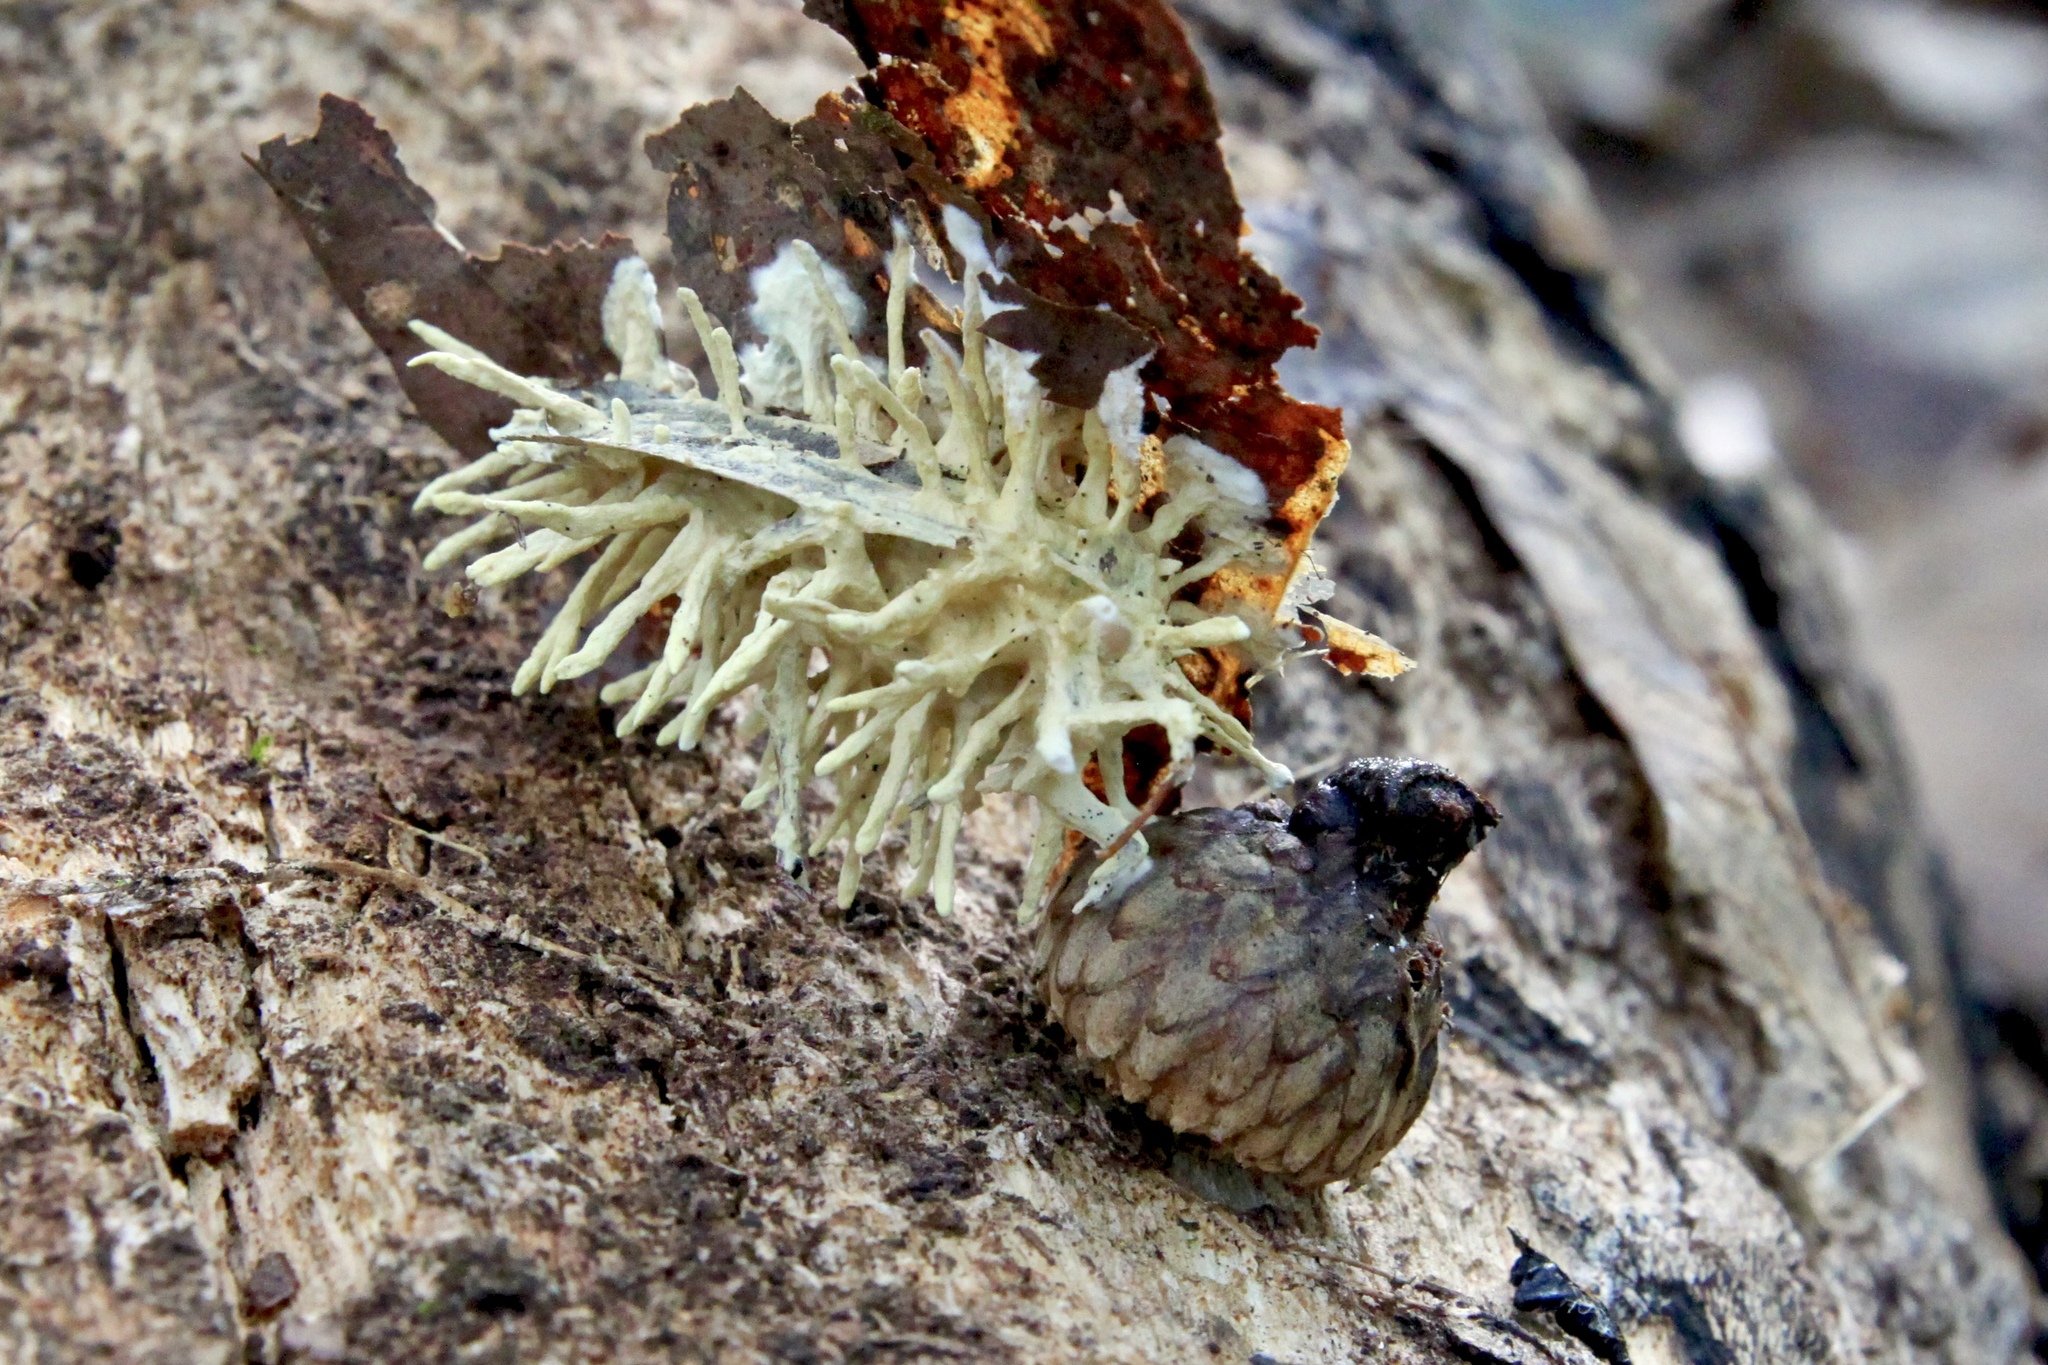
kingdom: Fungi
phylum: Ascomycota
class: Sordariomycetes
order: Hypocreales
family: Cordycipitaceae
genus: Akanthomyces
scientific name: Akanthomyces aculeatus
